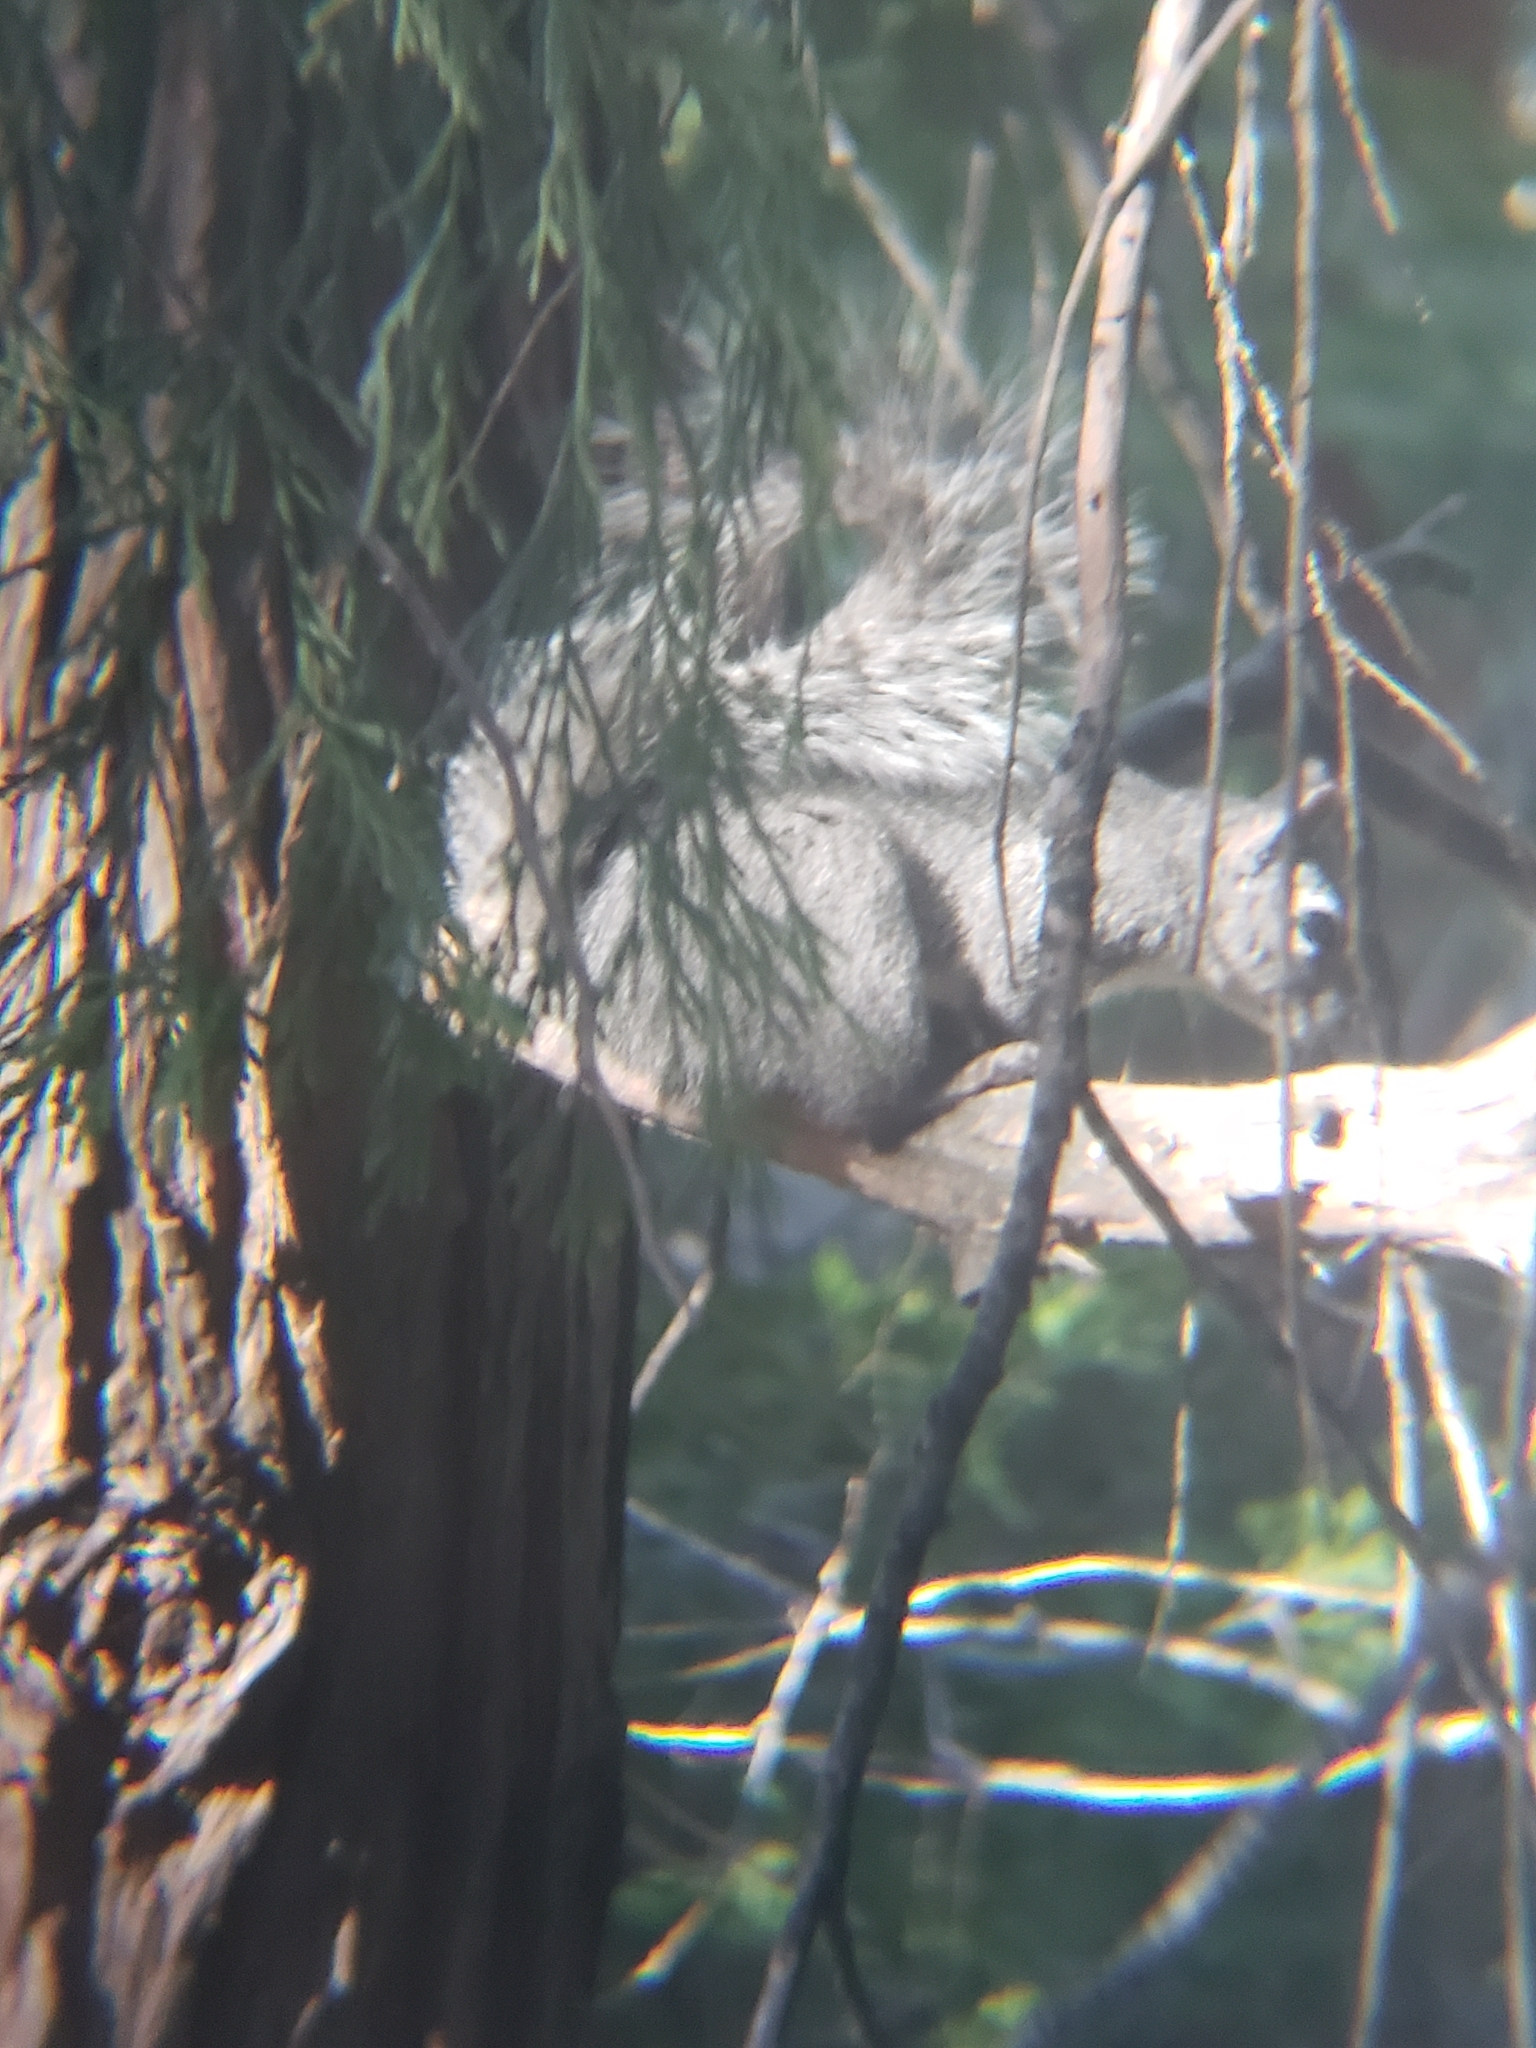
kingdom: Animalia
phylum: Chordata
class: Mammalia
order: Rodentia
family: Sciuridae
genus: Sciurus
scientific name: Sciurus griseus
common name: Western gray squirrel
